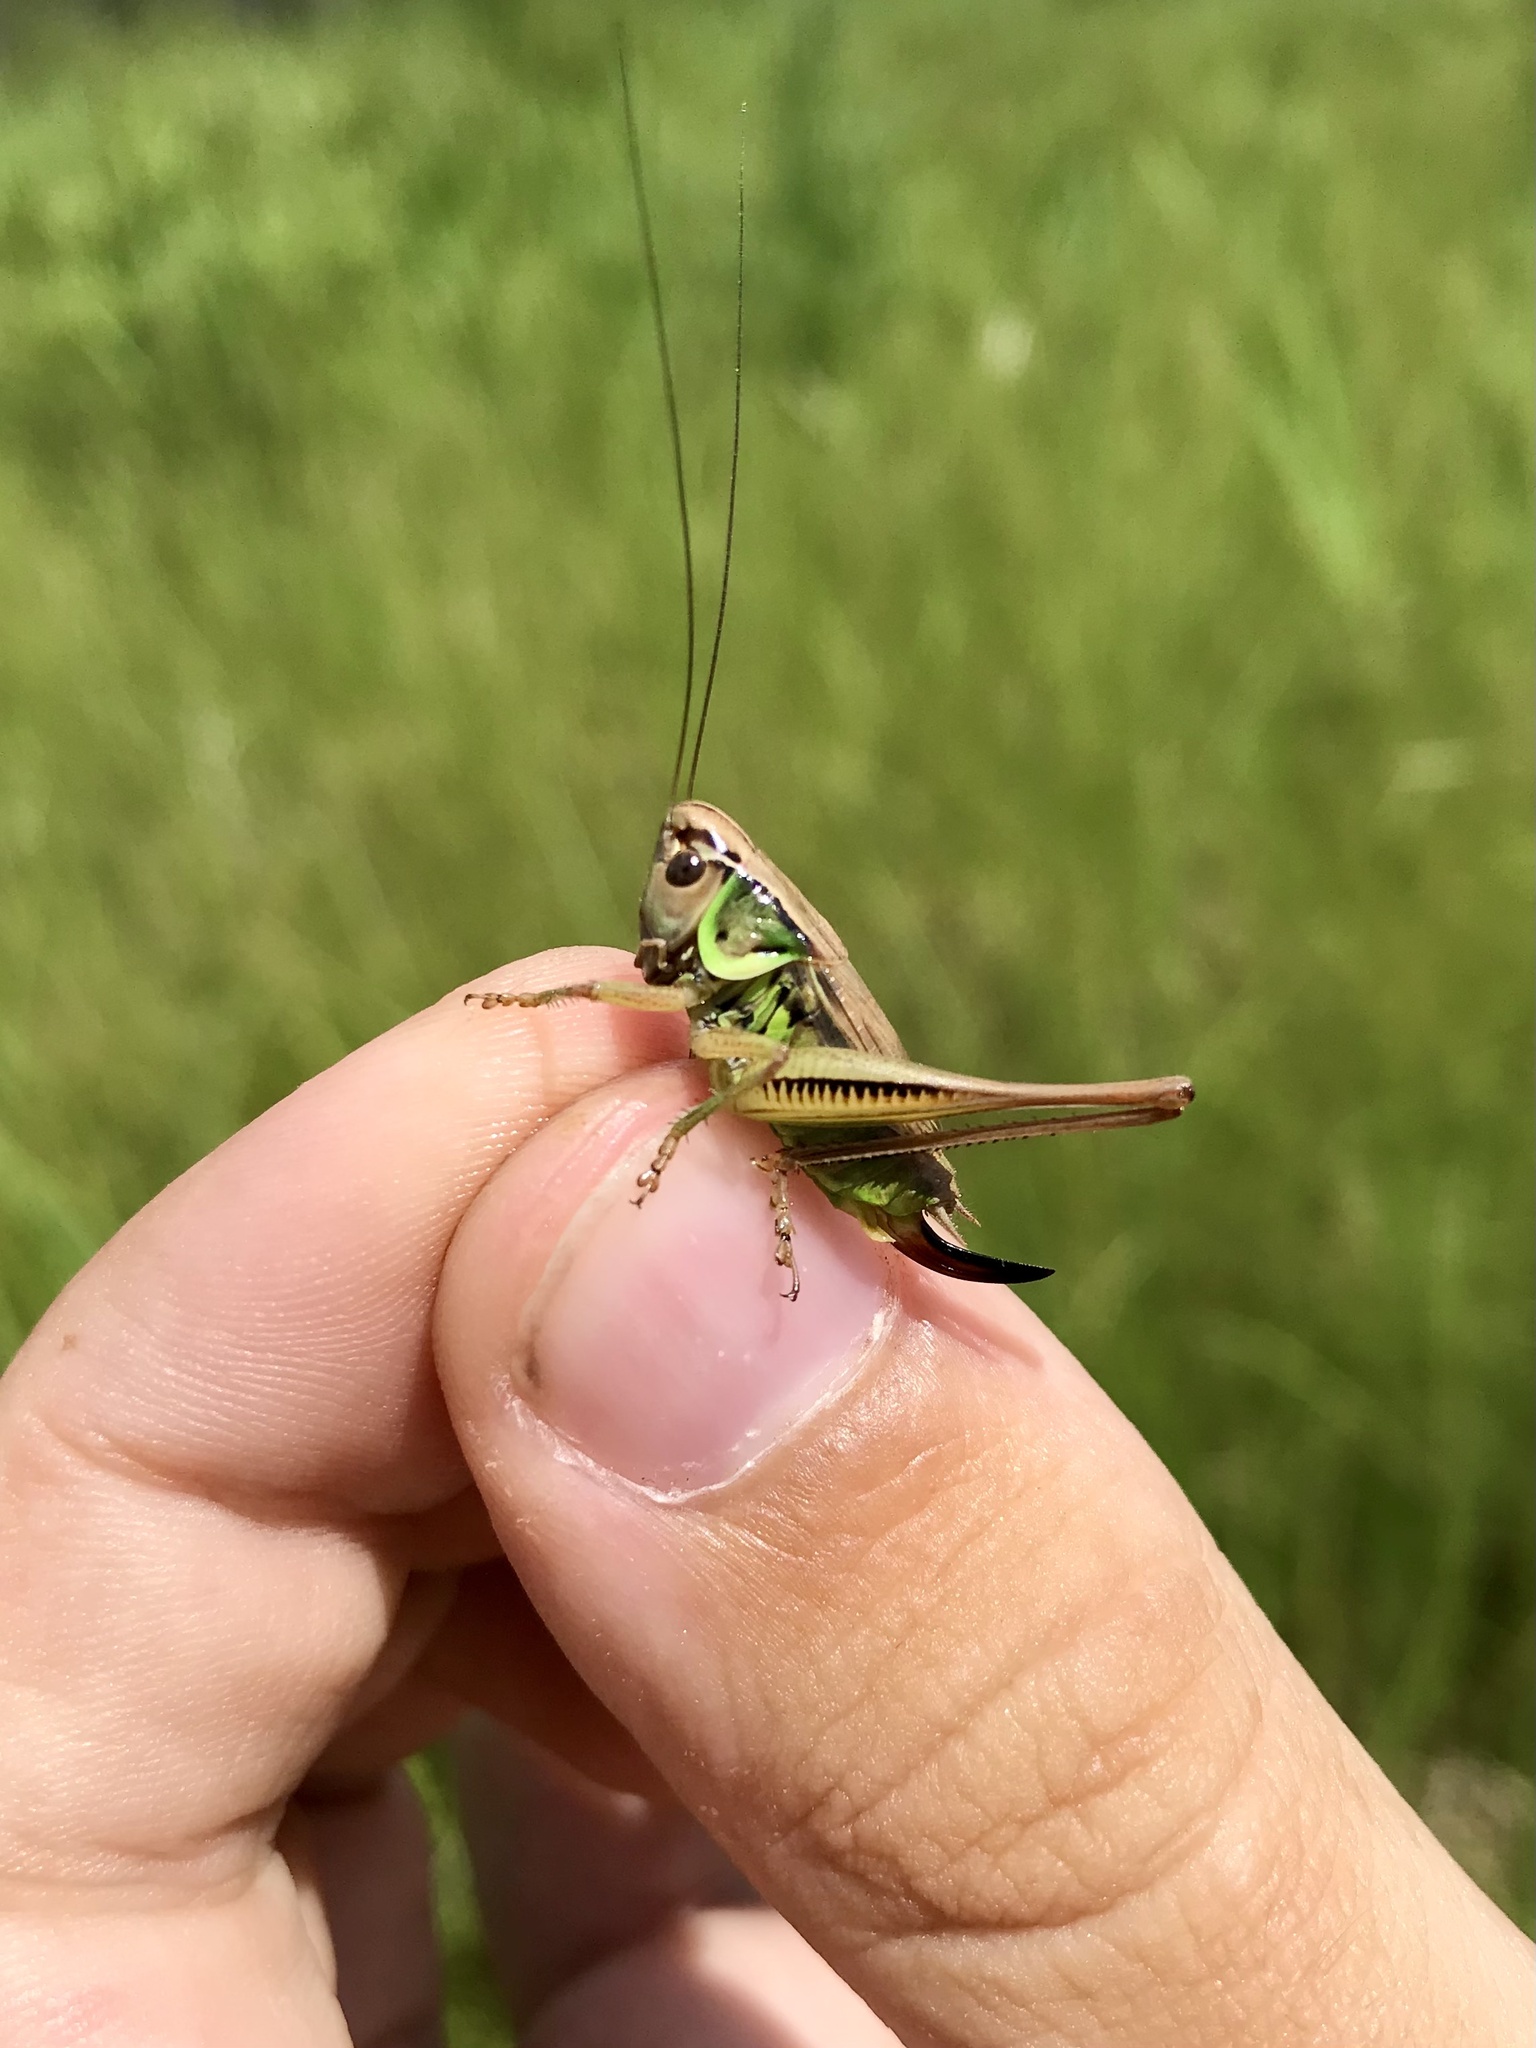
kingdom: Animalia
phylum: Arthropoda
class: Insecta
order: Orthoptera
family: Tettigoniidae
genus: Roeseliana
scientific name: Roeseliana roeselii
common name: Roesel's bush cricket
